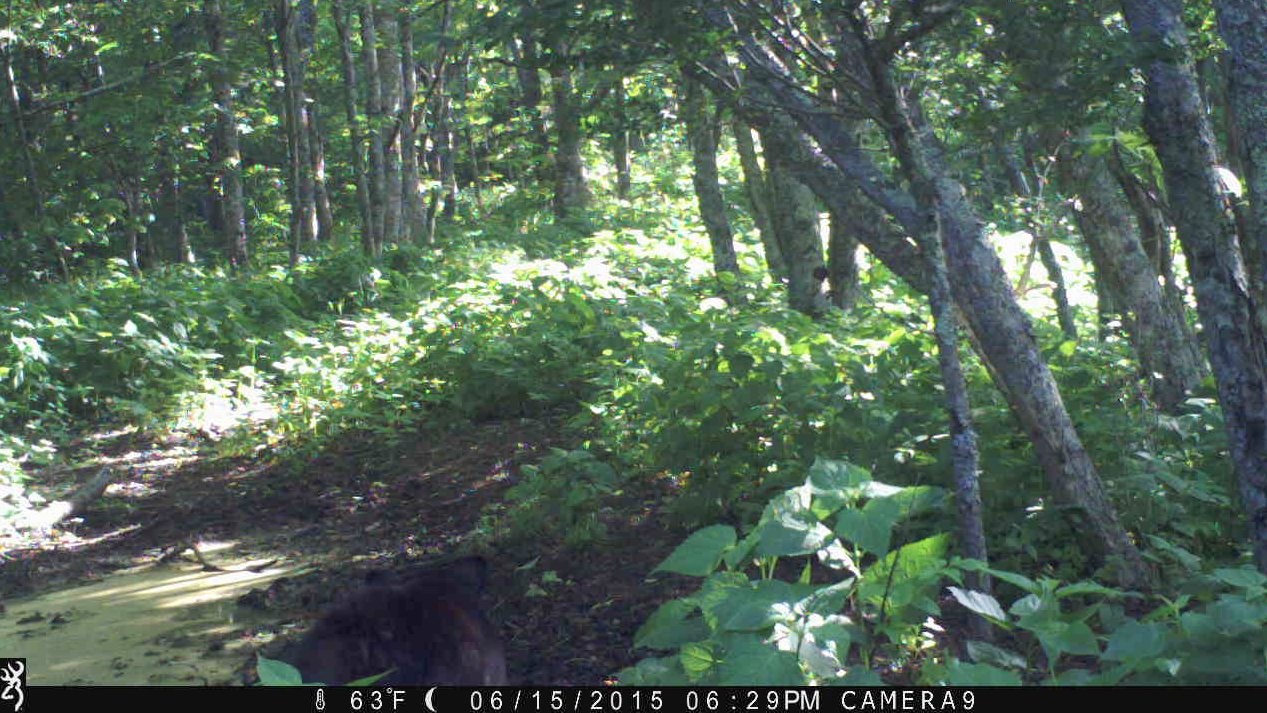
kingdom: Animalia
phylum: Chordata
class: Mammalia
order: Carnivora
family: Ursidae
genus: Ursus
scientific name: Ursus americanus
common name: American black bear
